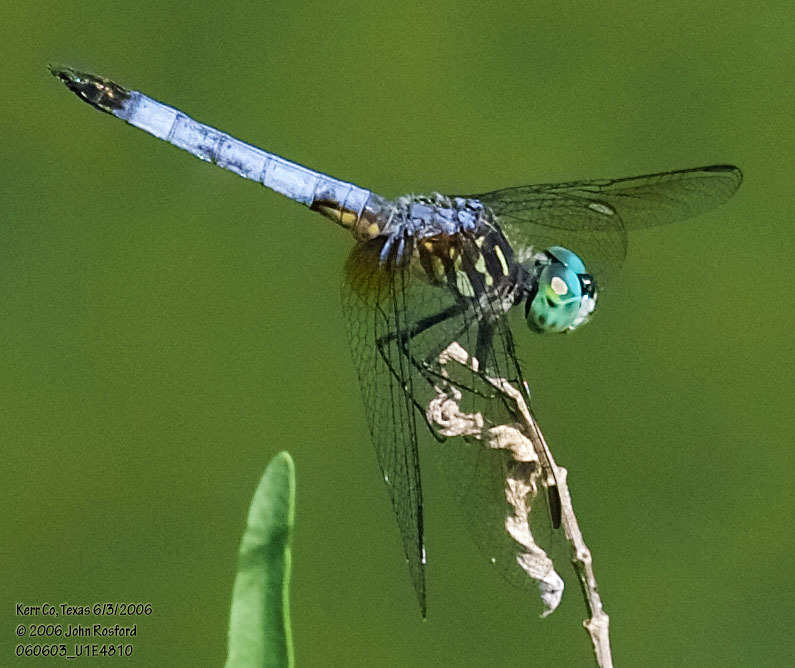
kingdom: Animalia
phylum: Arthropoda
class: Insecta
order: Odonata
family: Libellulidae
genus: Pachydiplax
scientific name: Pachydiplax longipennis
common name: Blue dasher
